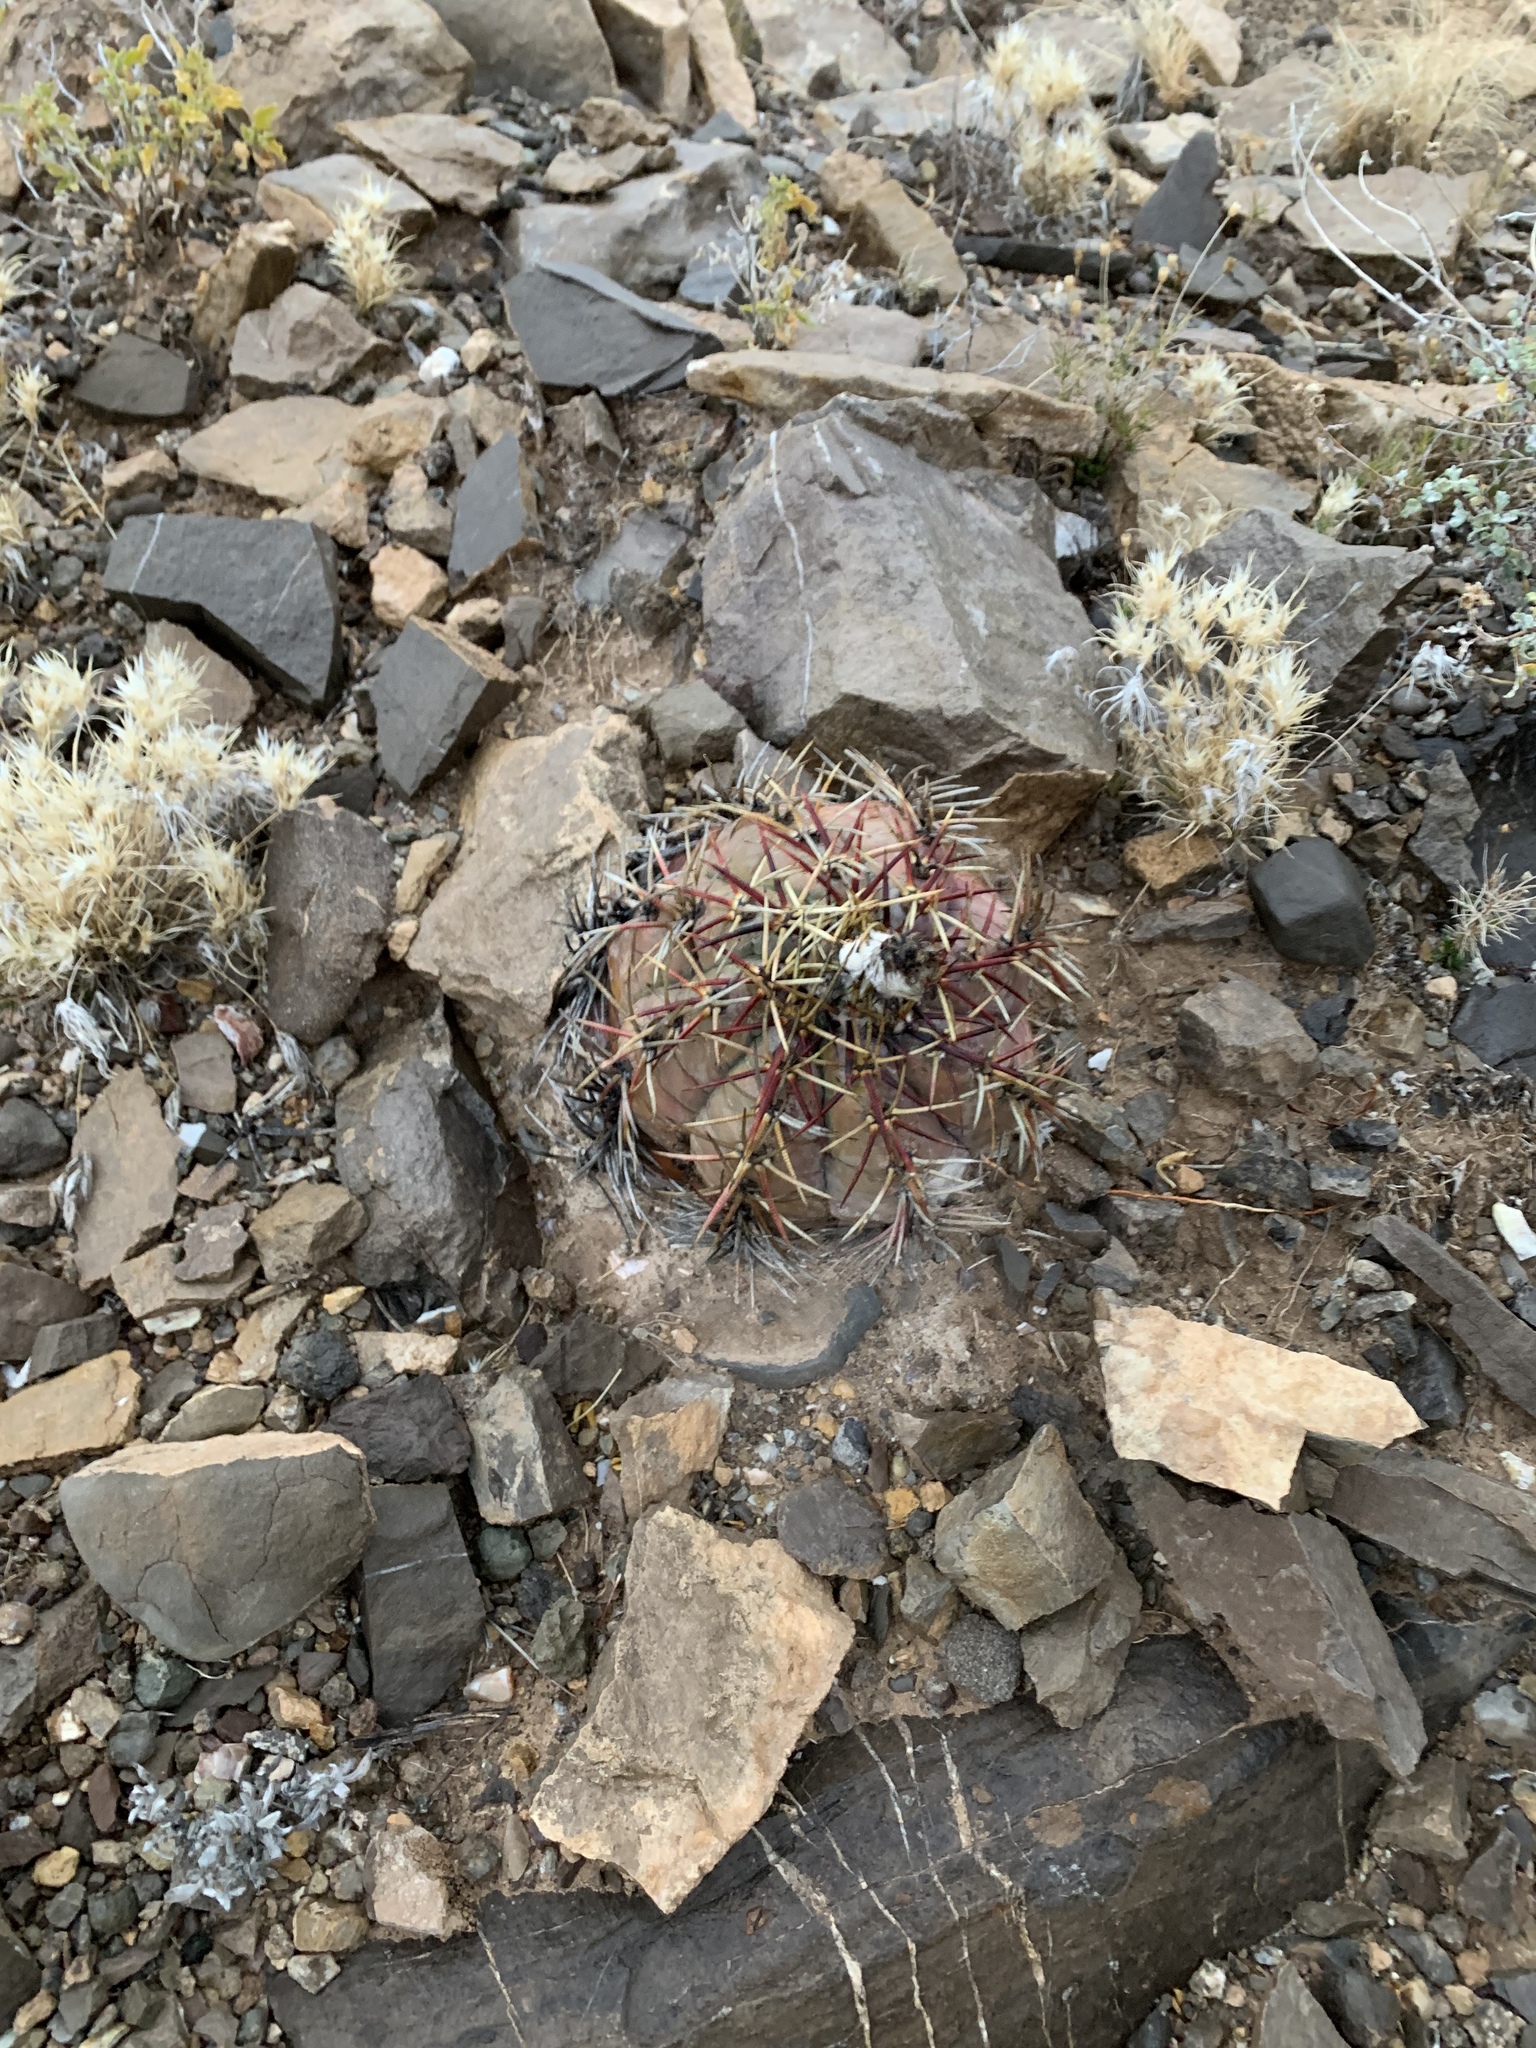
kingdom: Plantae
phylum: Tracheophyta
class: Magnoliopsida
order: Caryophyllales
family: Cactaceae
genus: Echinocactus
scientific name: Echinocactus horizonthalonius
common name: Devilshead
